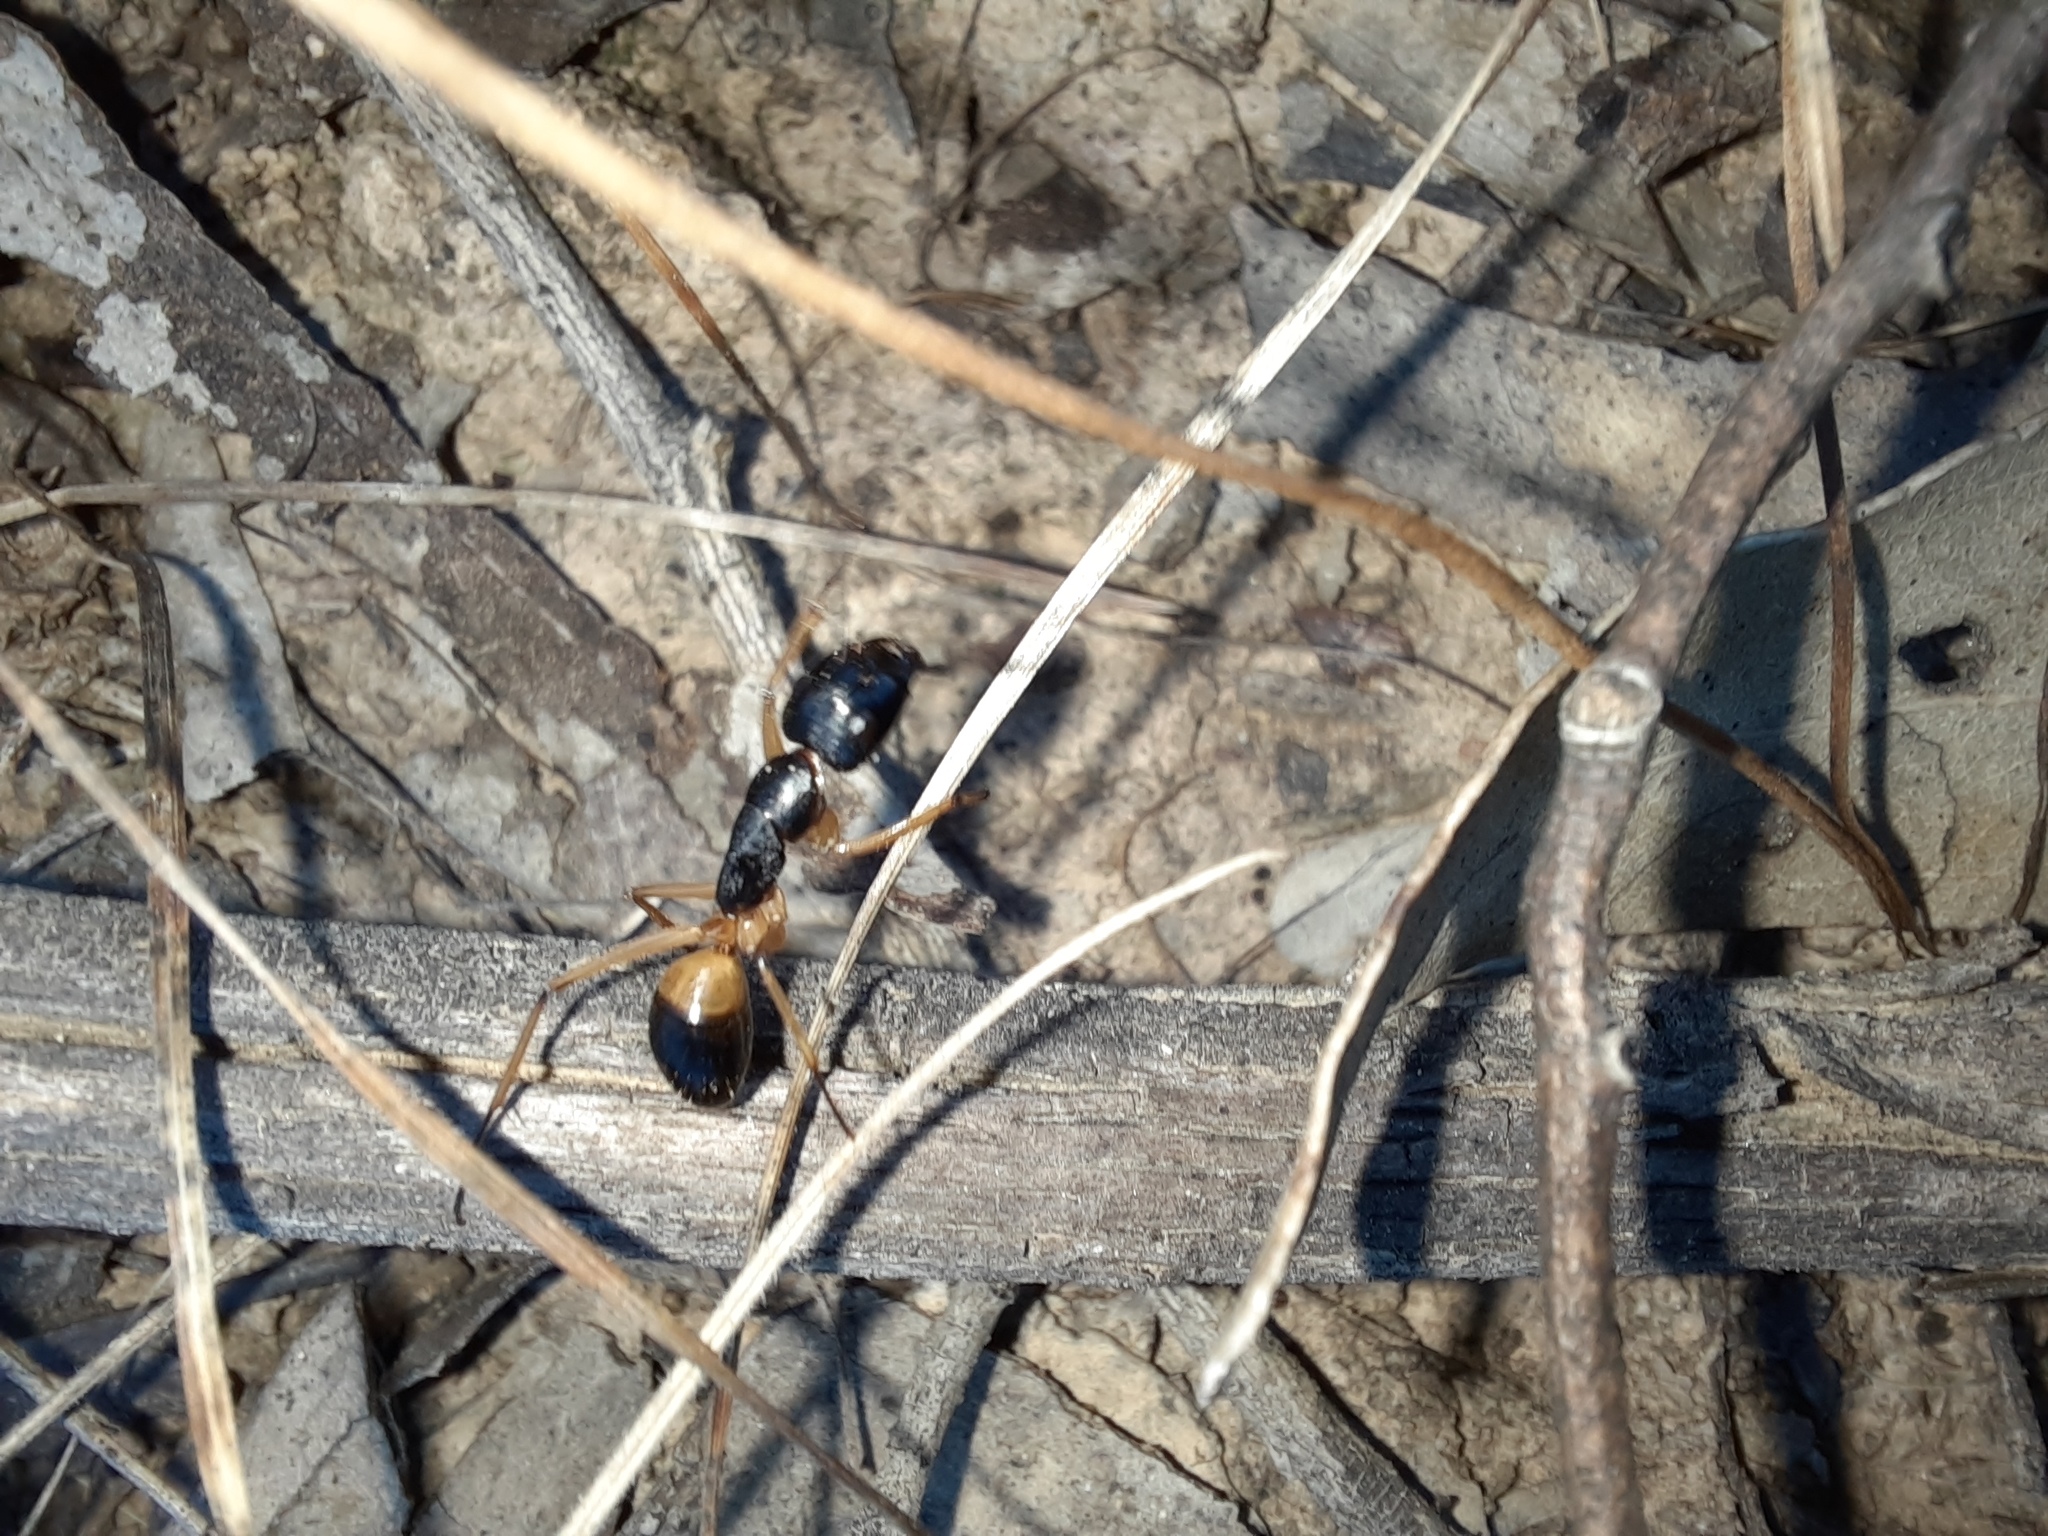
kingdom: Animalia
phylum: Arthropoda
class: Insecta
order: Hymenoptera
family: Formicidae
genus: Camponotus
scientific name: Camponotus consobrinus
